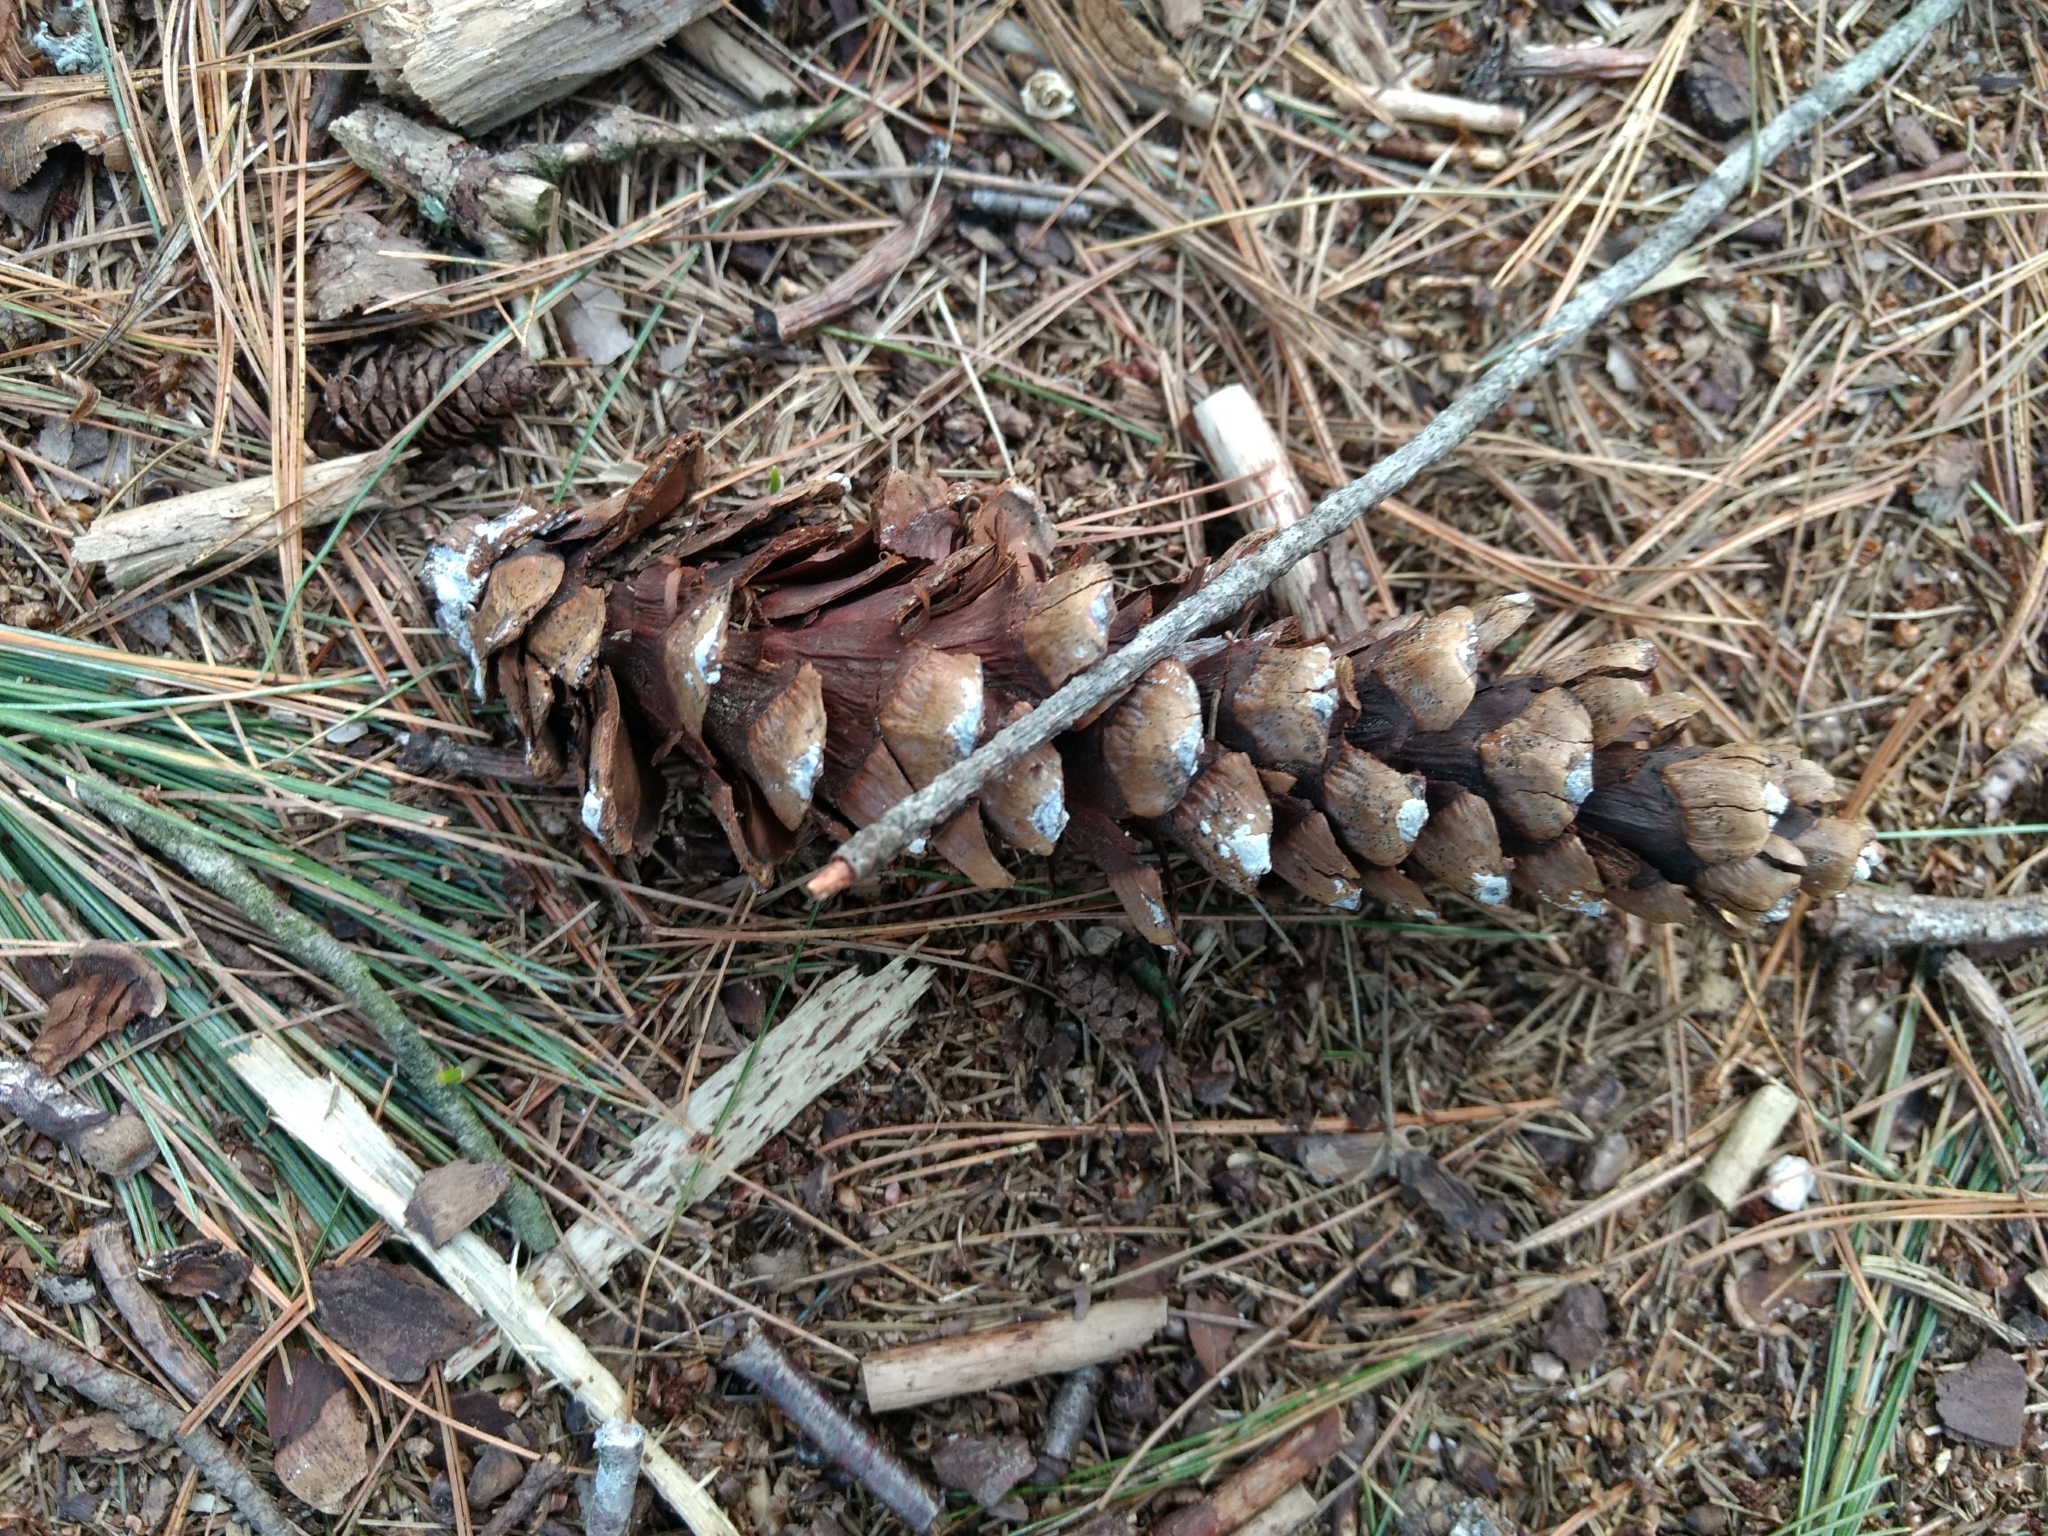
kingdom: Plantae
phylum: Tracheophyta
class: Pinopsida
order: Pinales
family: Pinaceae
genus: Pinus
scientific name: Pinus strobus
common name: Weymouth pine
